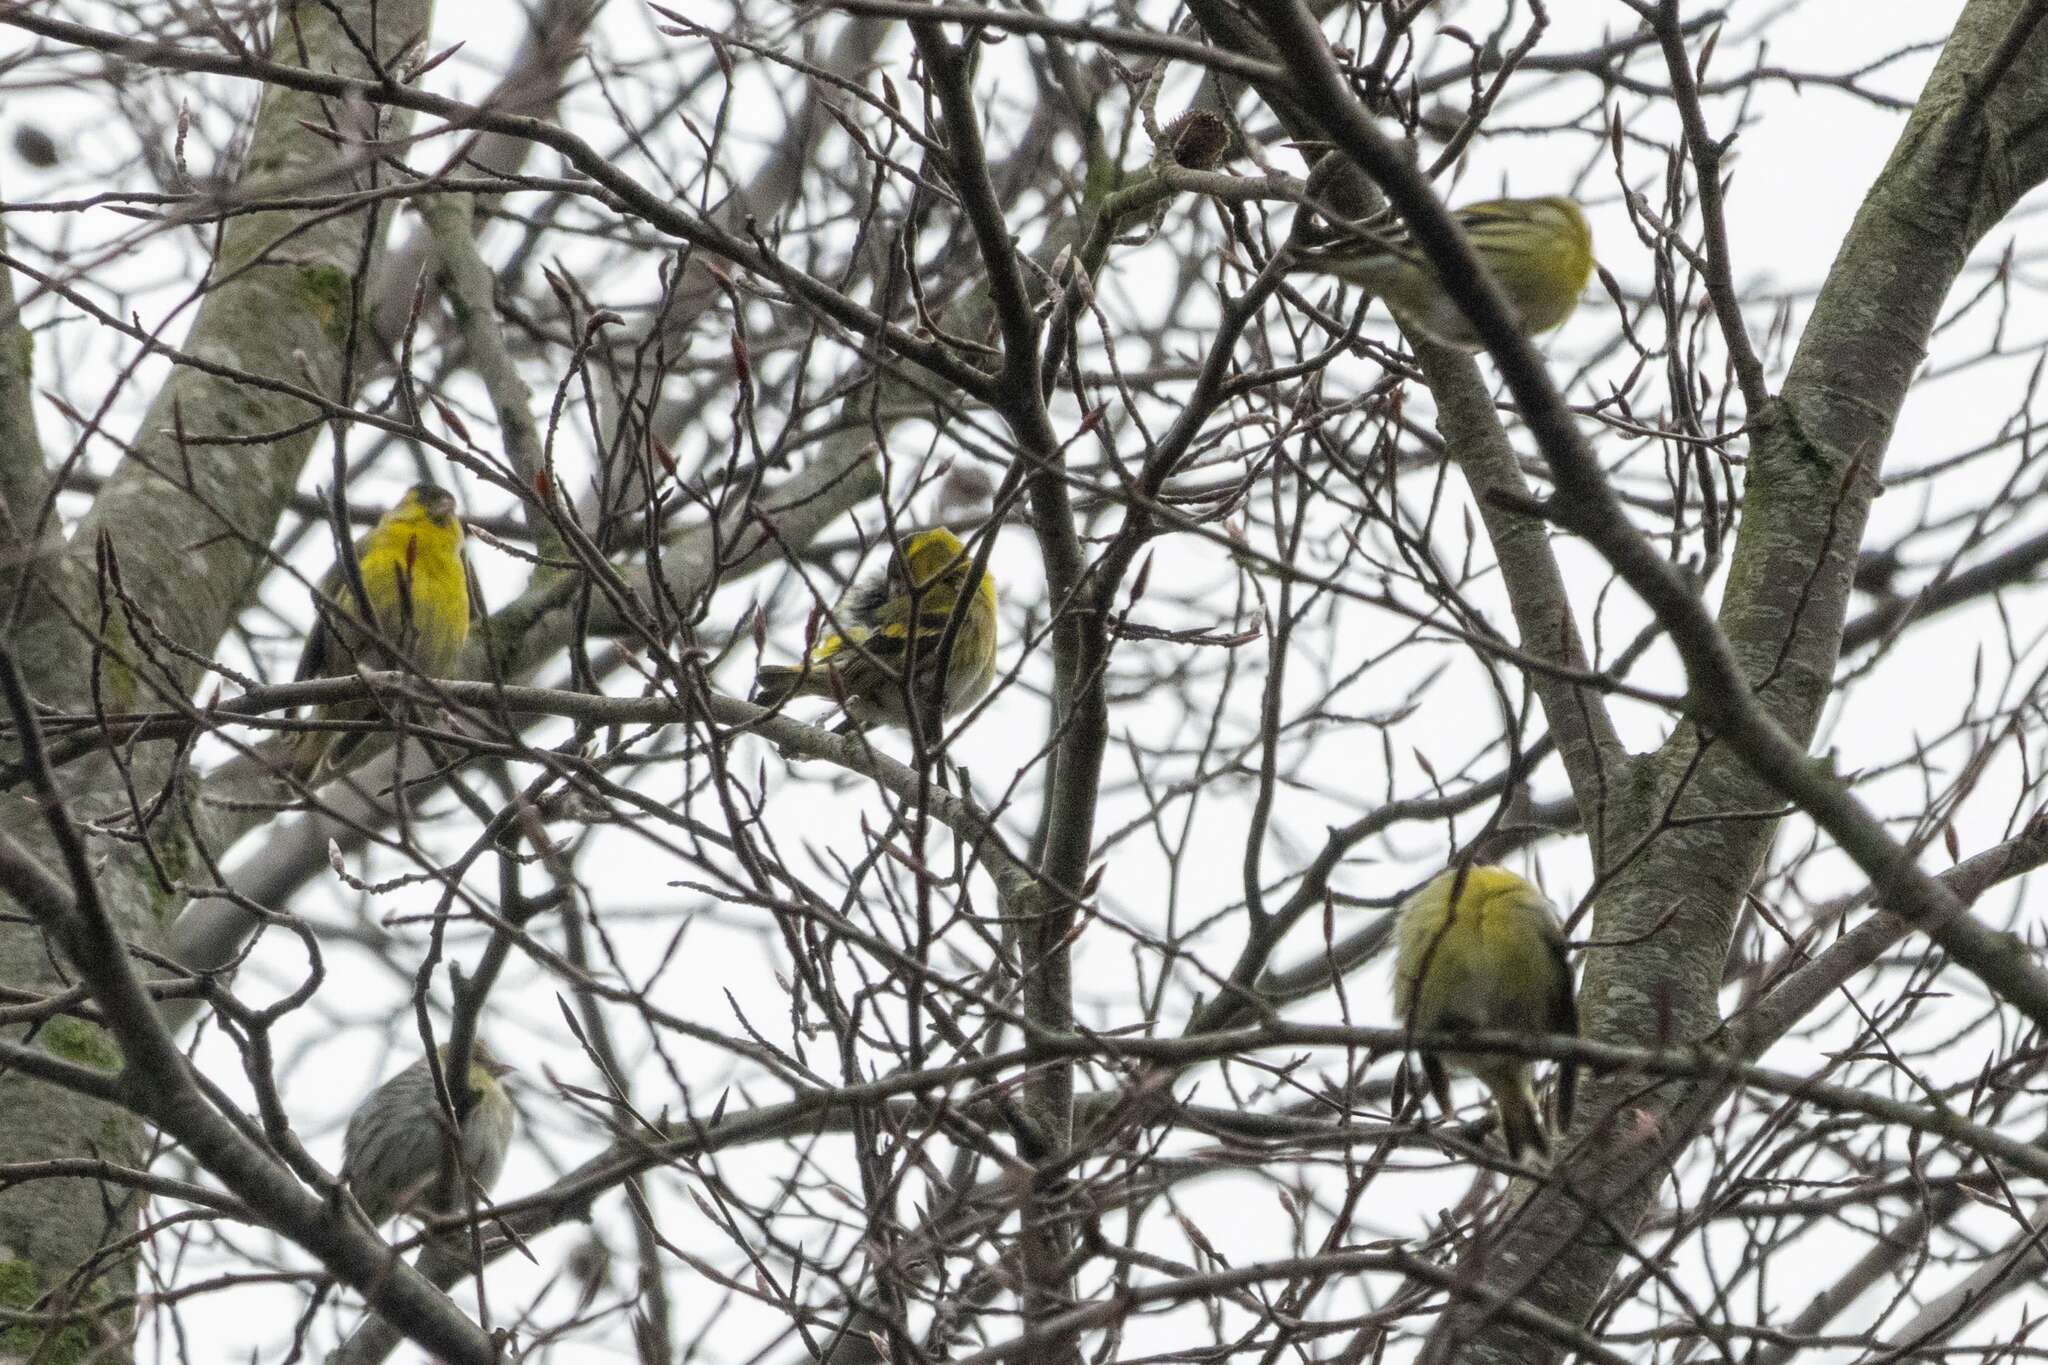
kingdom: Animalia
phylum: Chordata
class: Aves
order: Passeriformes
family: Fringillidae
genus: Spinus
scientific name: Spinus spinus
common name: Eurasian siskin
